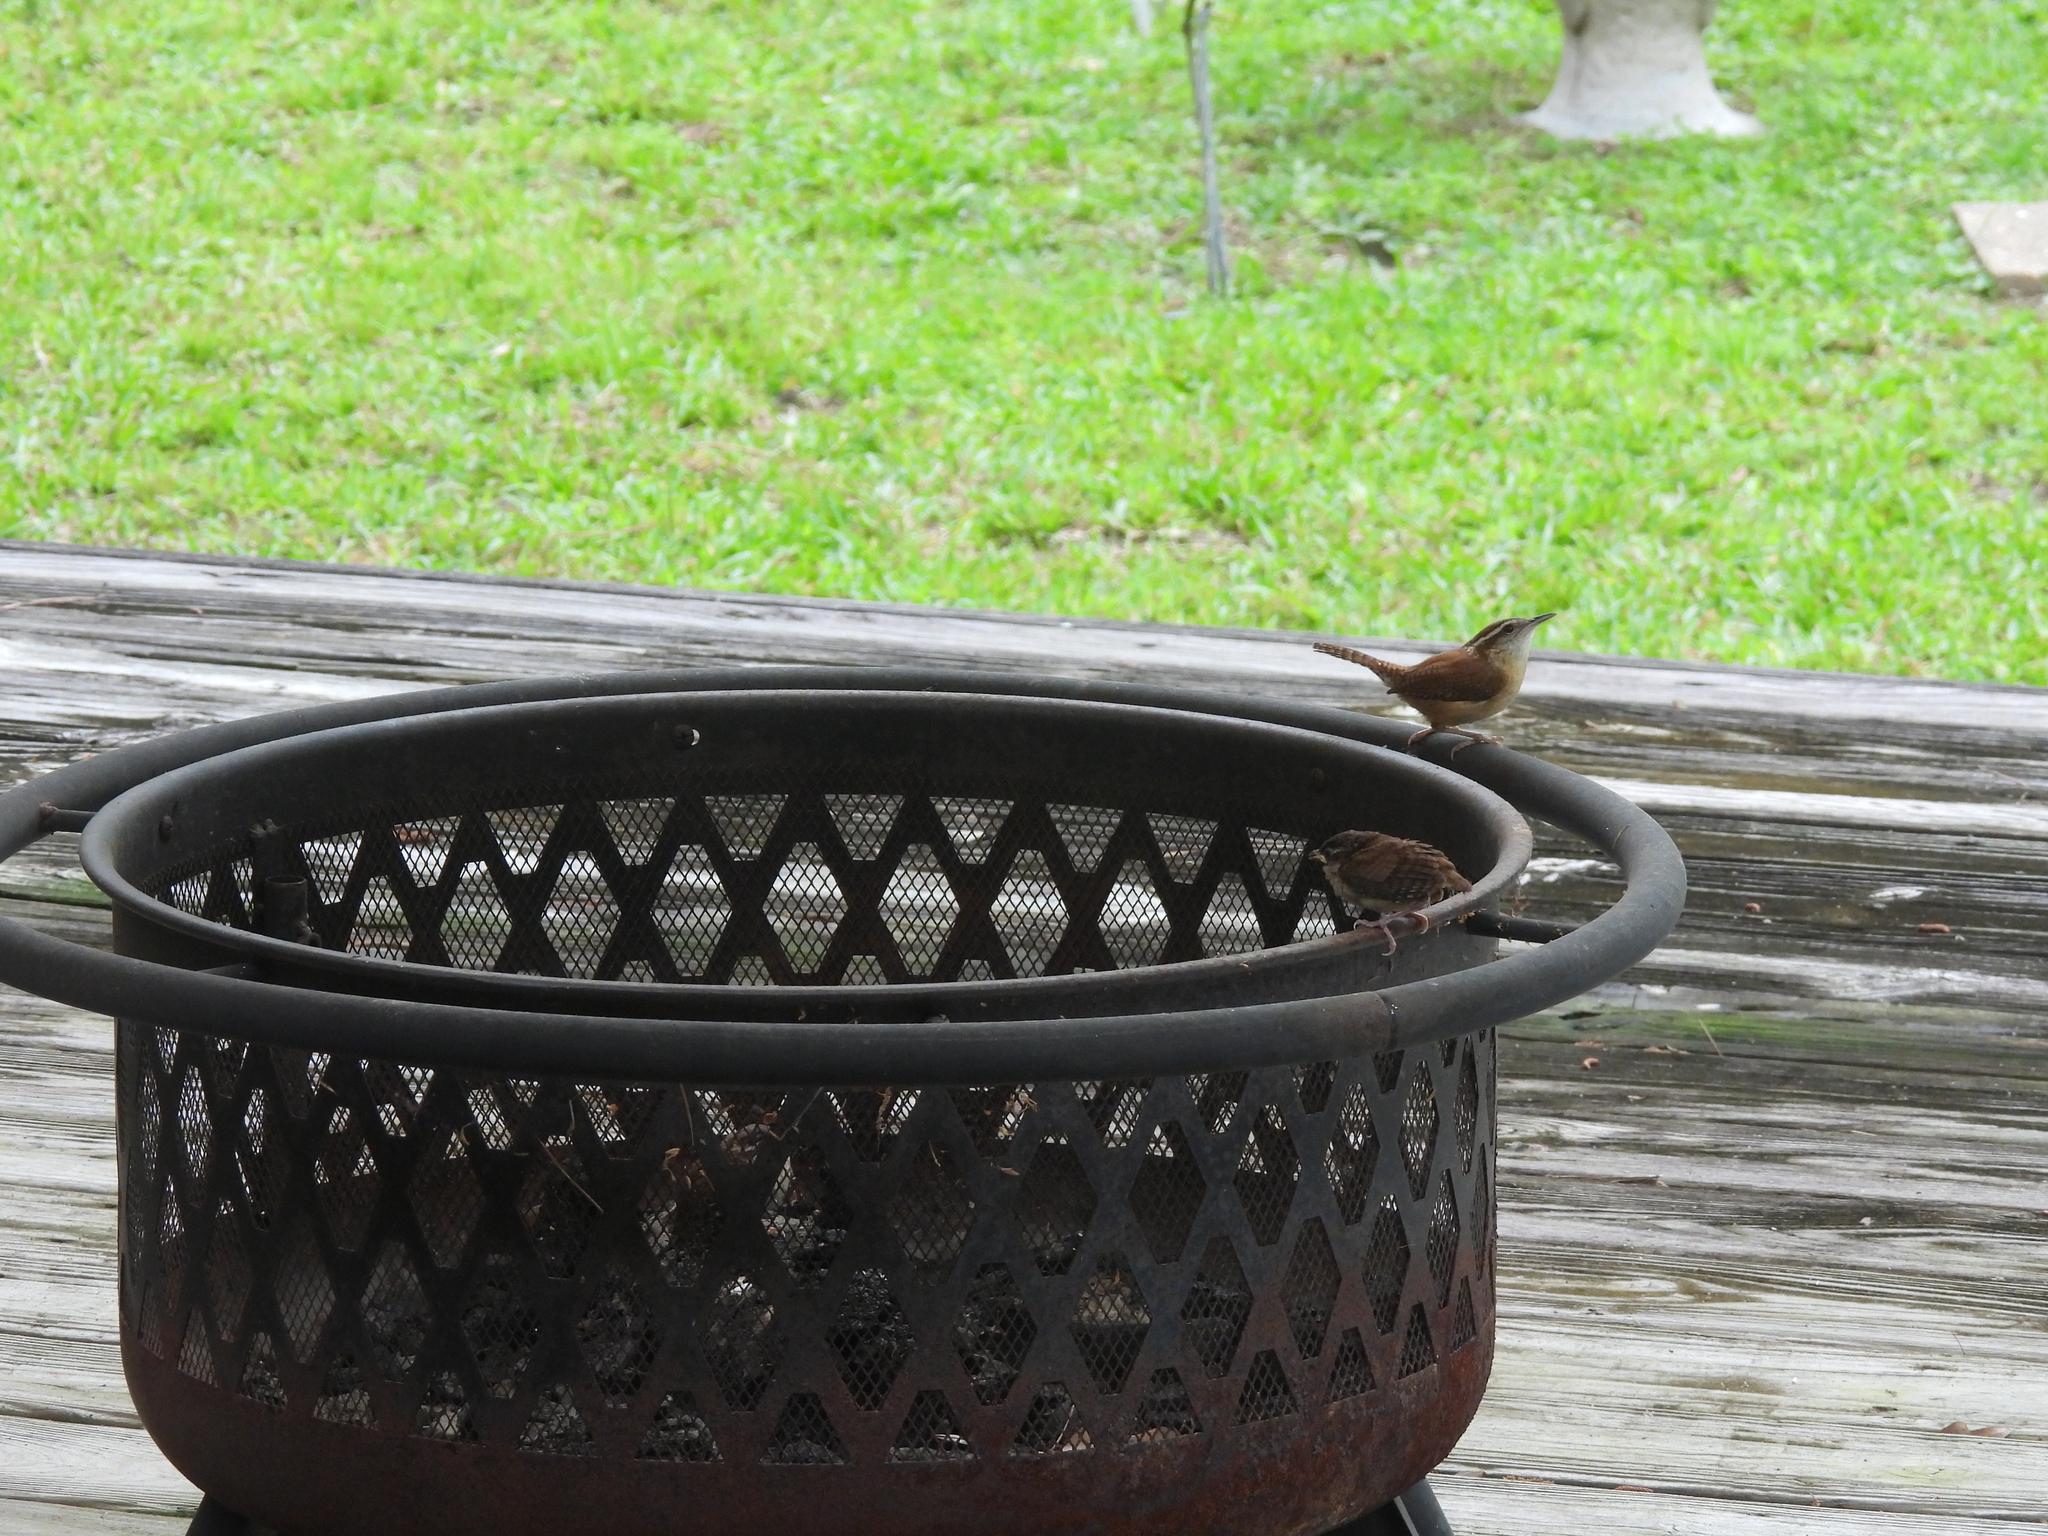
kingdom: Animalia
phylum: Chordata
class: Aves
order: Passeriformes
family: Troglodytidae
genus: Thryothorus
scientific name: Thryothorus ludovicianus
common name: Carolina wren
